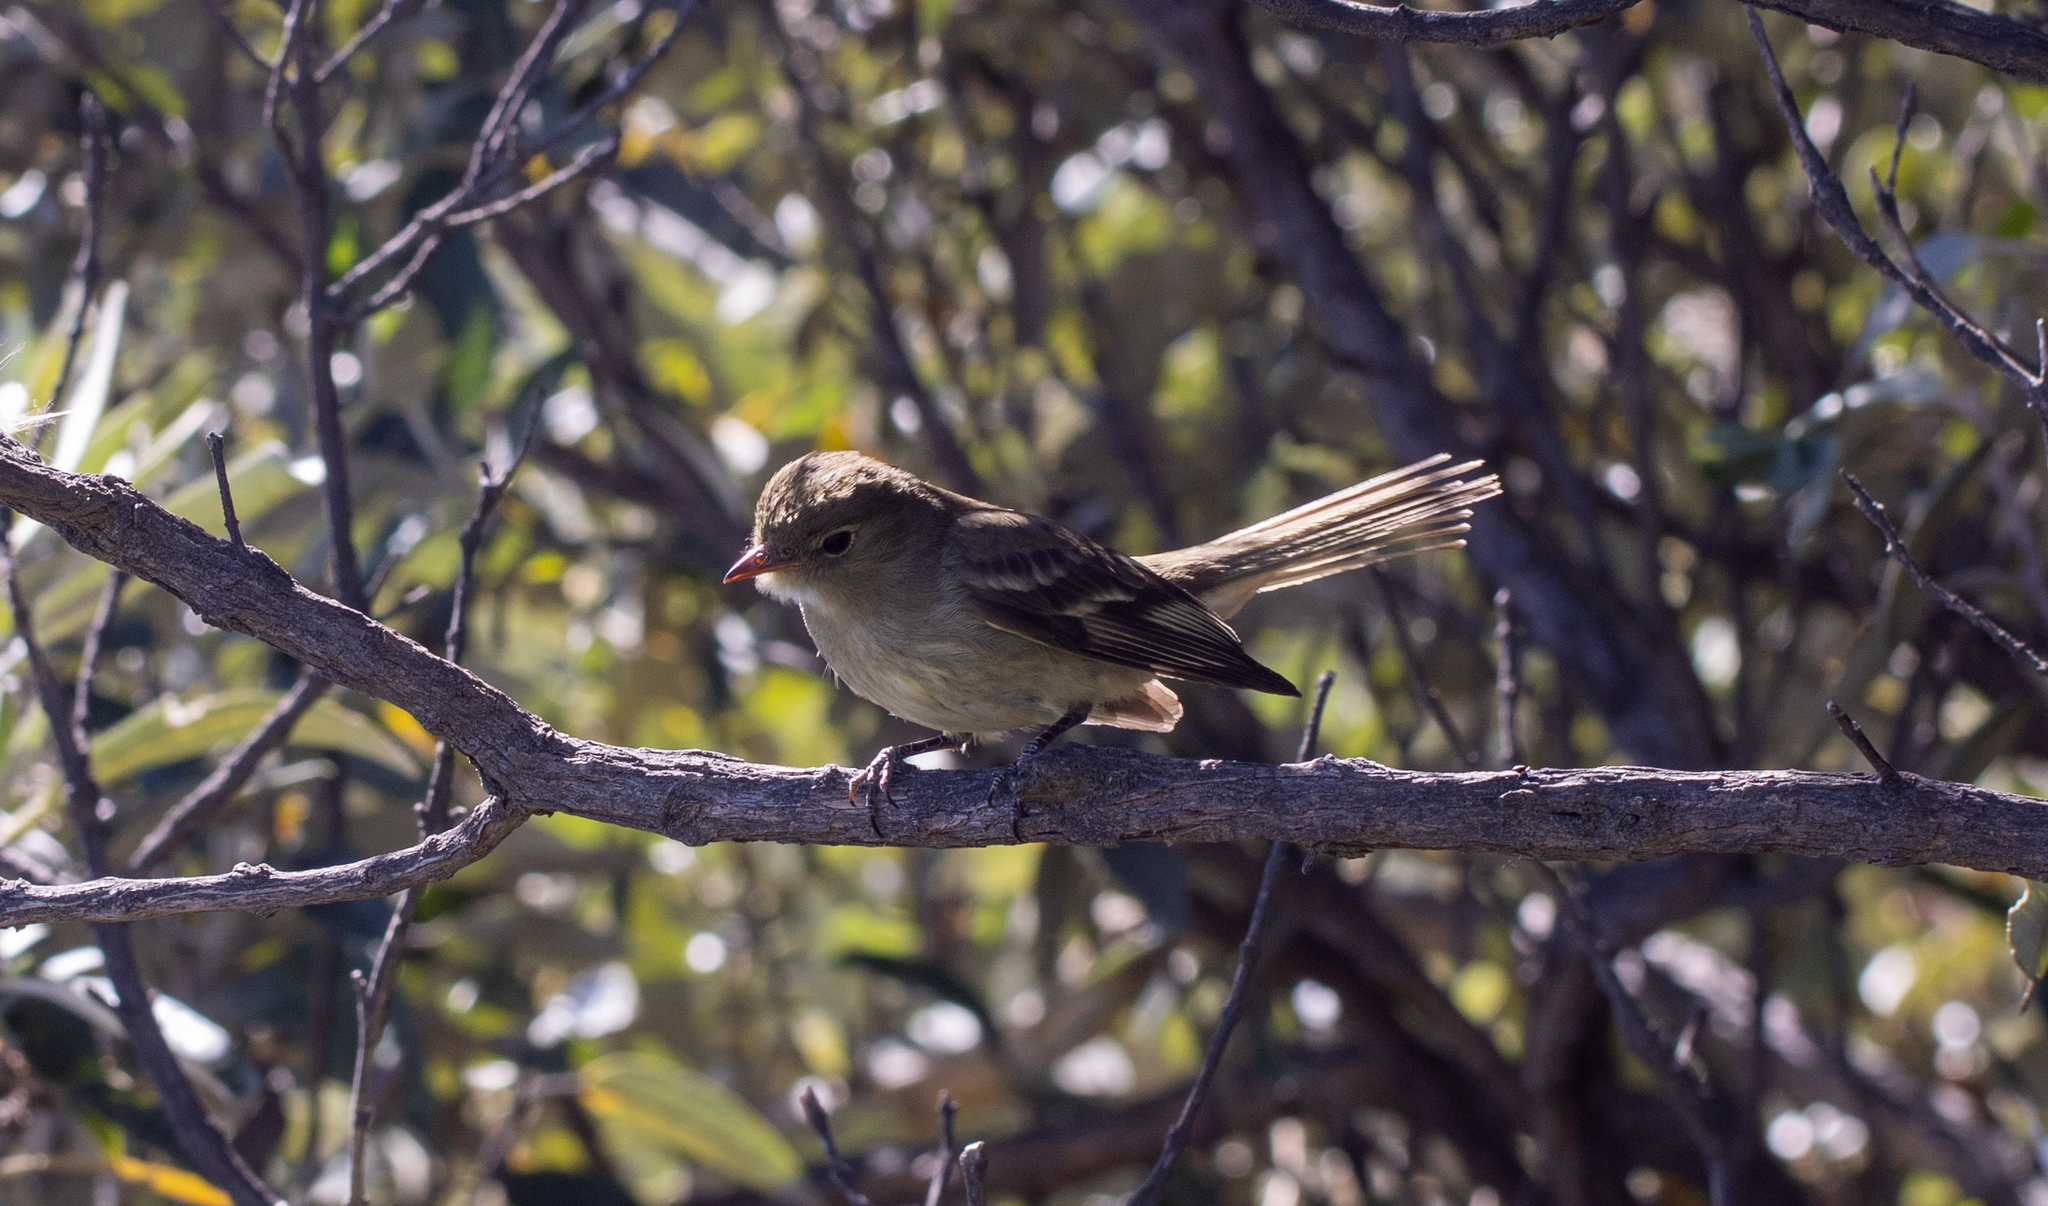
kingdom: Animalia
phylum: Chordata
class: Aves
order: Passeriformes
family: Tyrannidae
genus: Elaenia
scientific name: Elaenia frantzii
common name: Mountain elaenia
